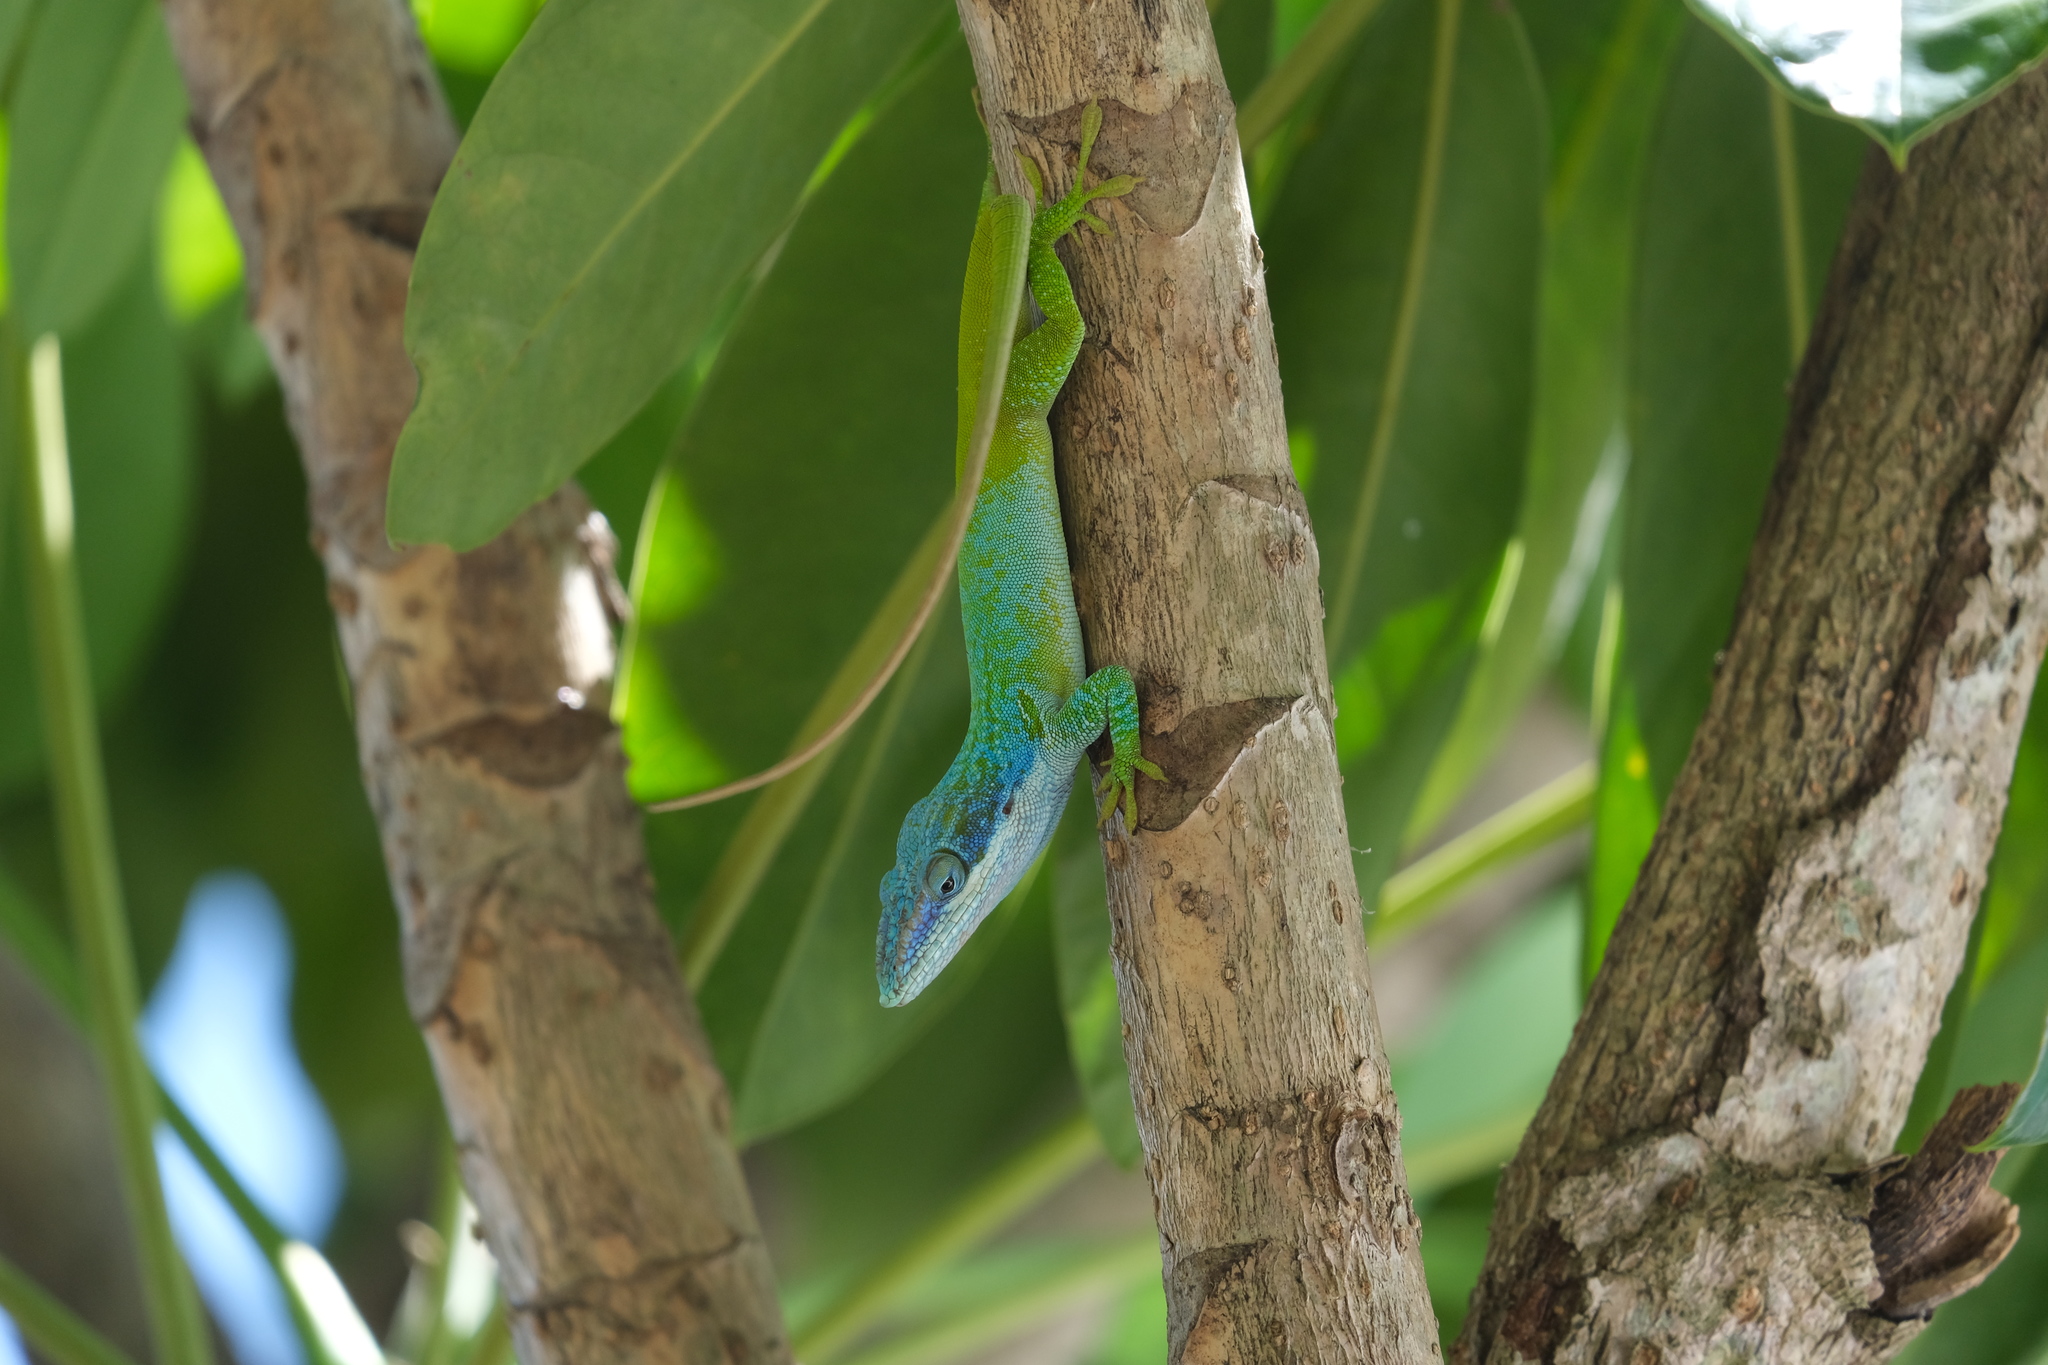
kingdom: Animalia
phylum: Chordata
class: Squamata
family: Dactyloidae
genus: Anolis
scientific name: Anolis allisoni
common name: Allison's anole
